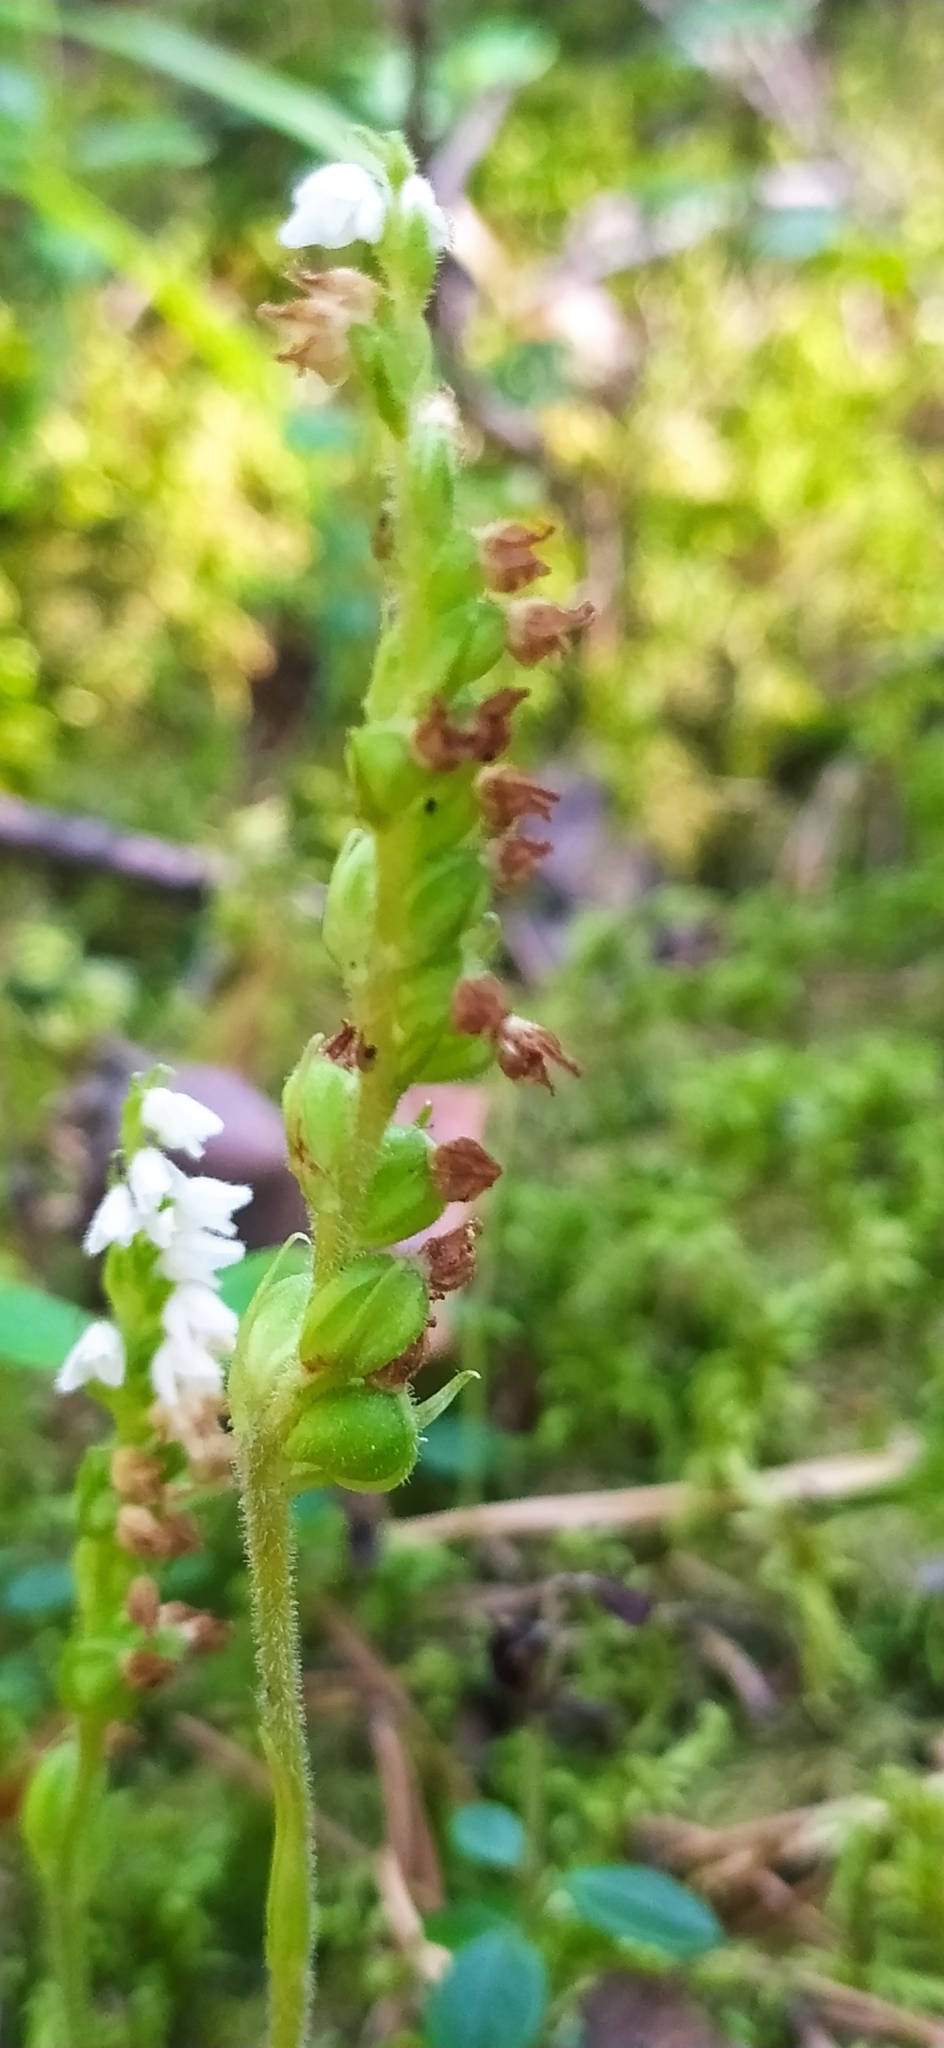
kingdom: Plantae
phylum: Tracheophyta
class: Liliopsida
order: Asparagales
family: Orchidaceae
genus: Goodyera
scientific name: Goodyera repens
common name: Creeping lady's-tresses
